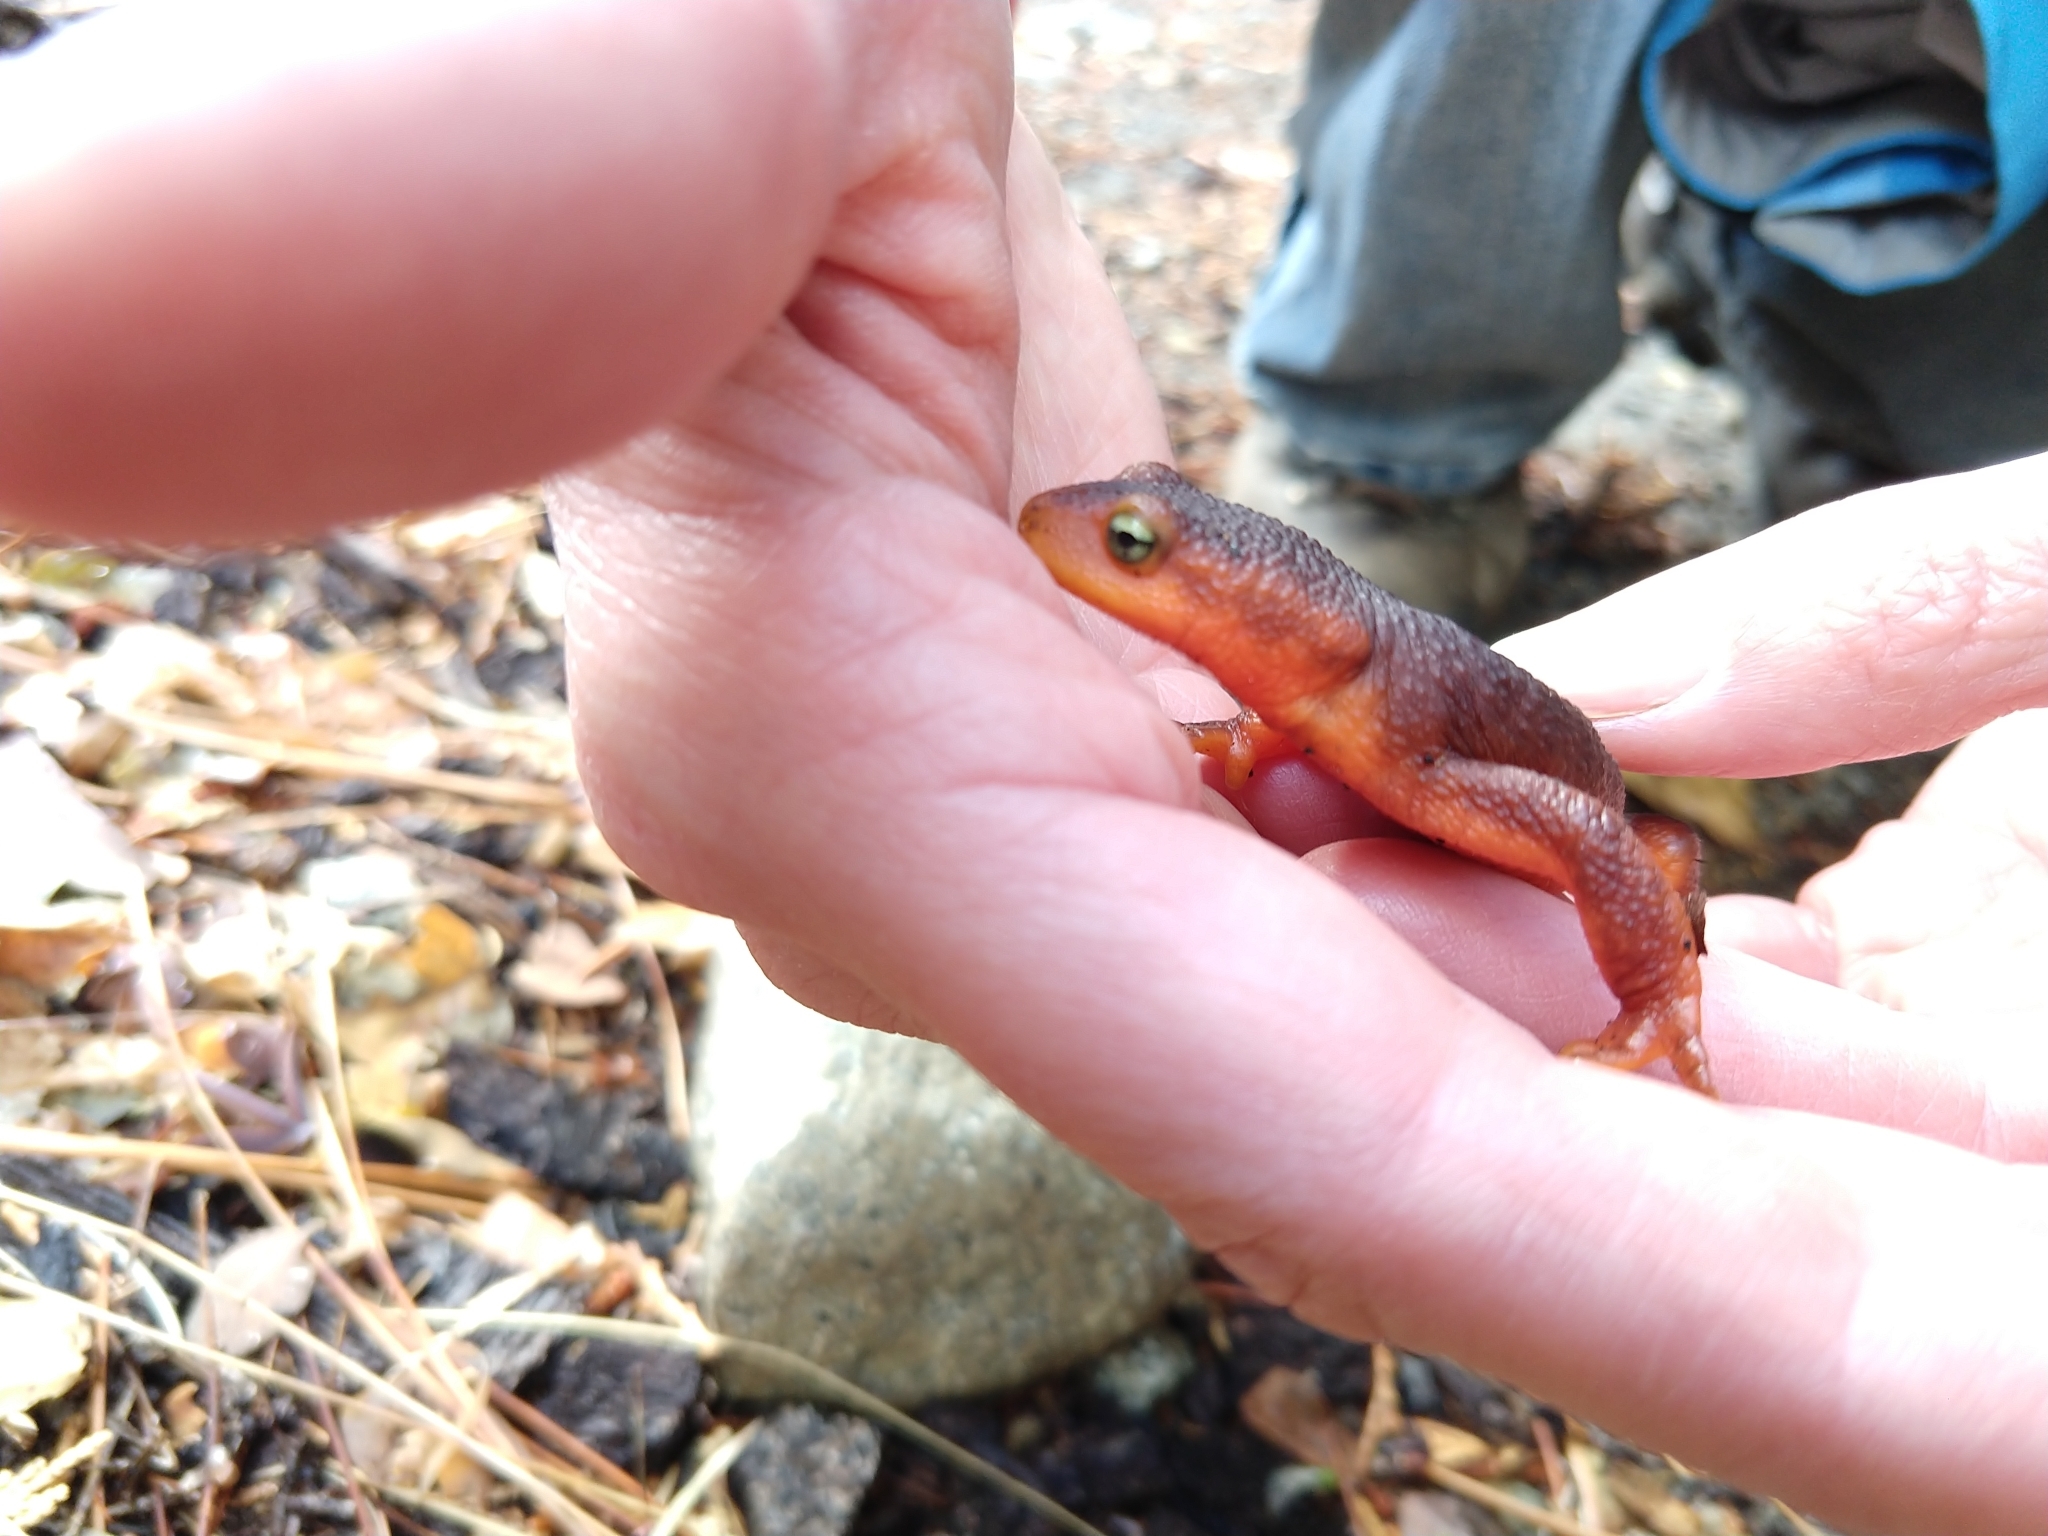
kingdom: Animalia
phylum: Chordata
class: Amphibia
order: Caudata
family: Salamandridae
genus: Taricha
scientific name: Taricha sierrae
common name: Sierra newt
